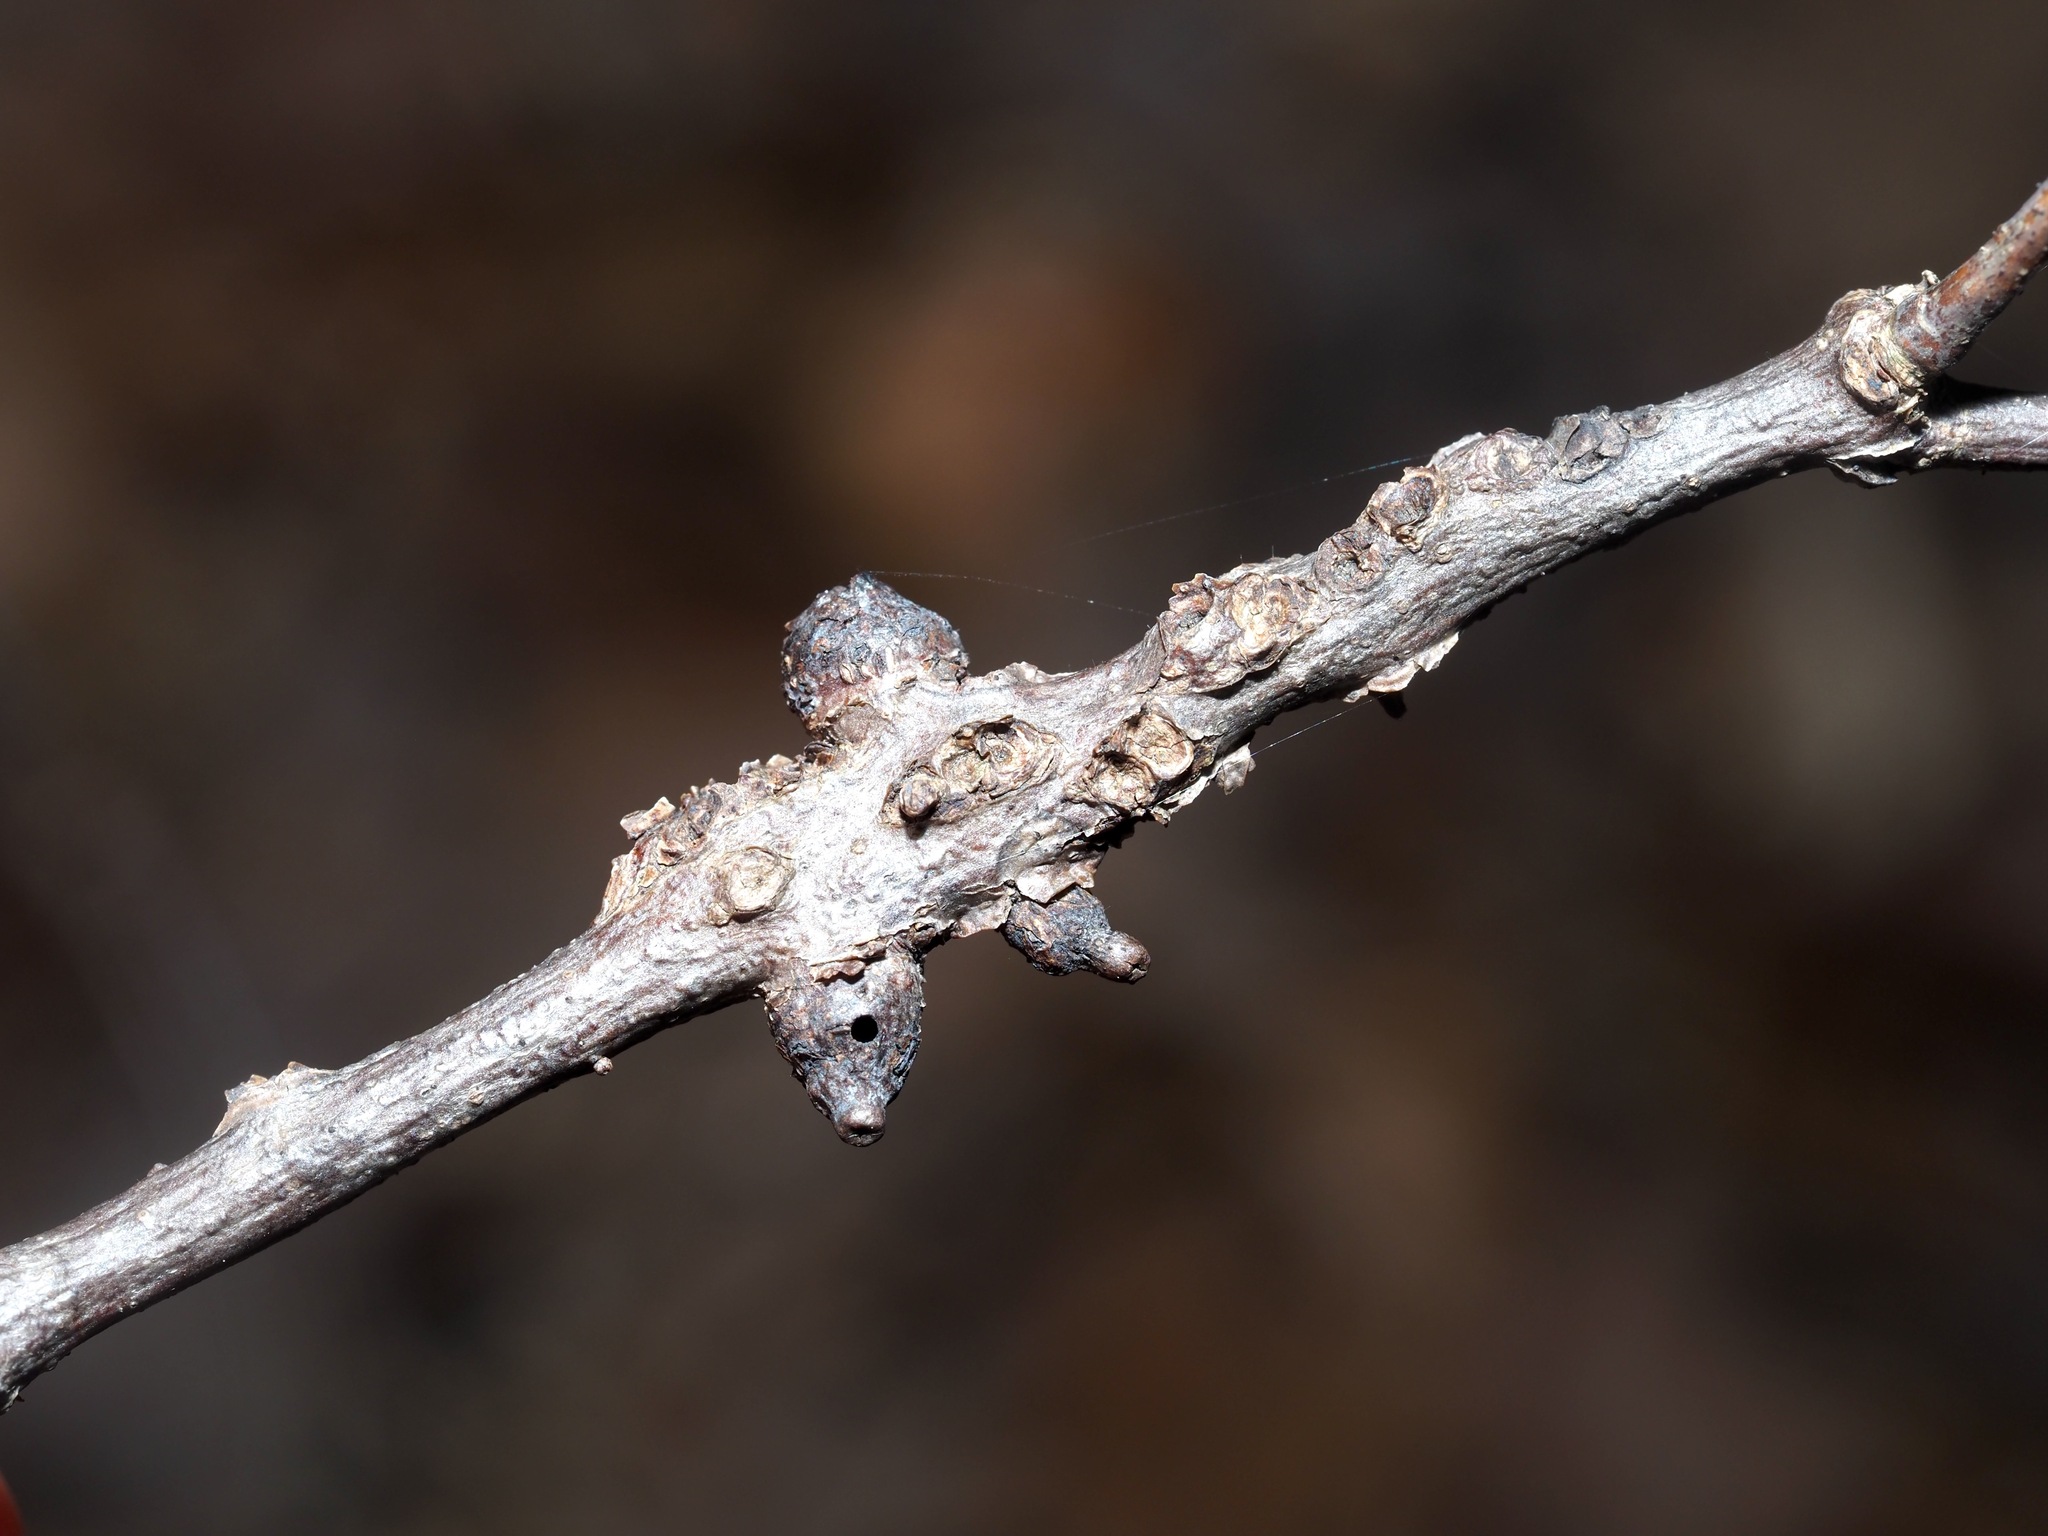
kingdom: Animalia
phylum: Arthropoda
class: Insecta
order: Hymenoptera
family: Cynipidae
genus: Callirhytis
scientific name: Callirhytis
